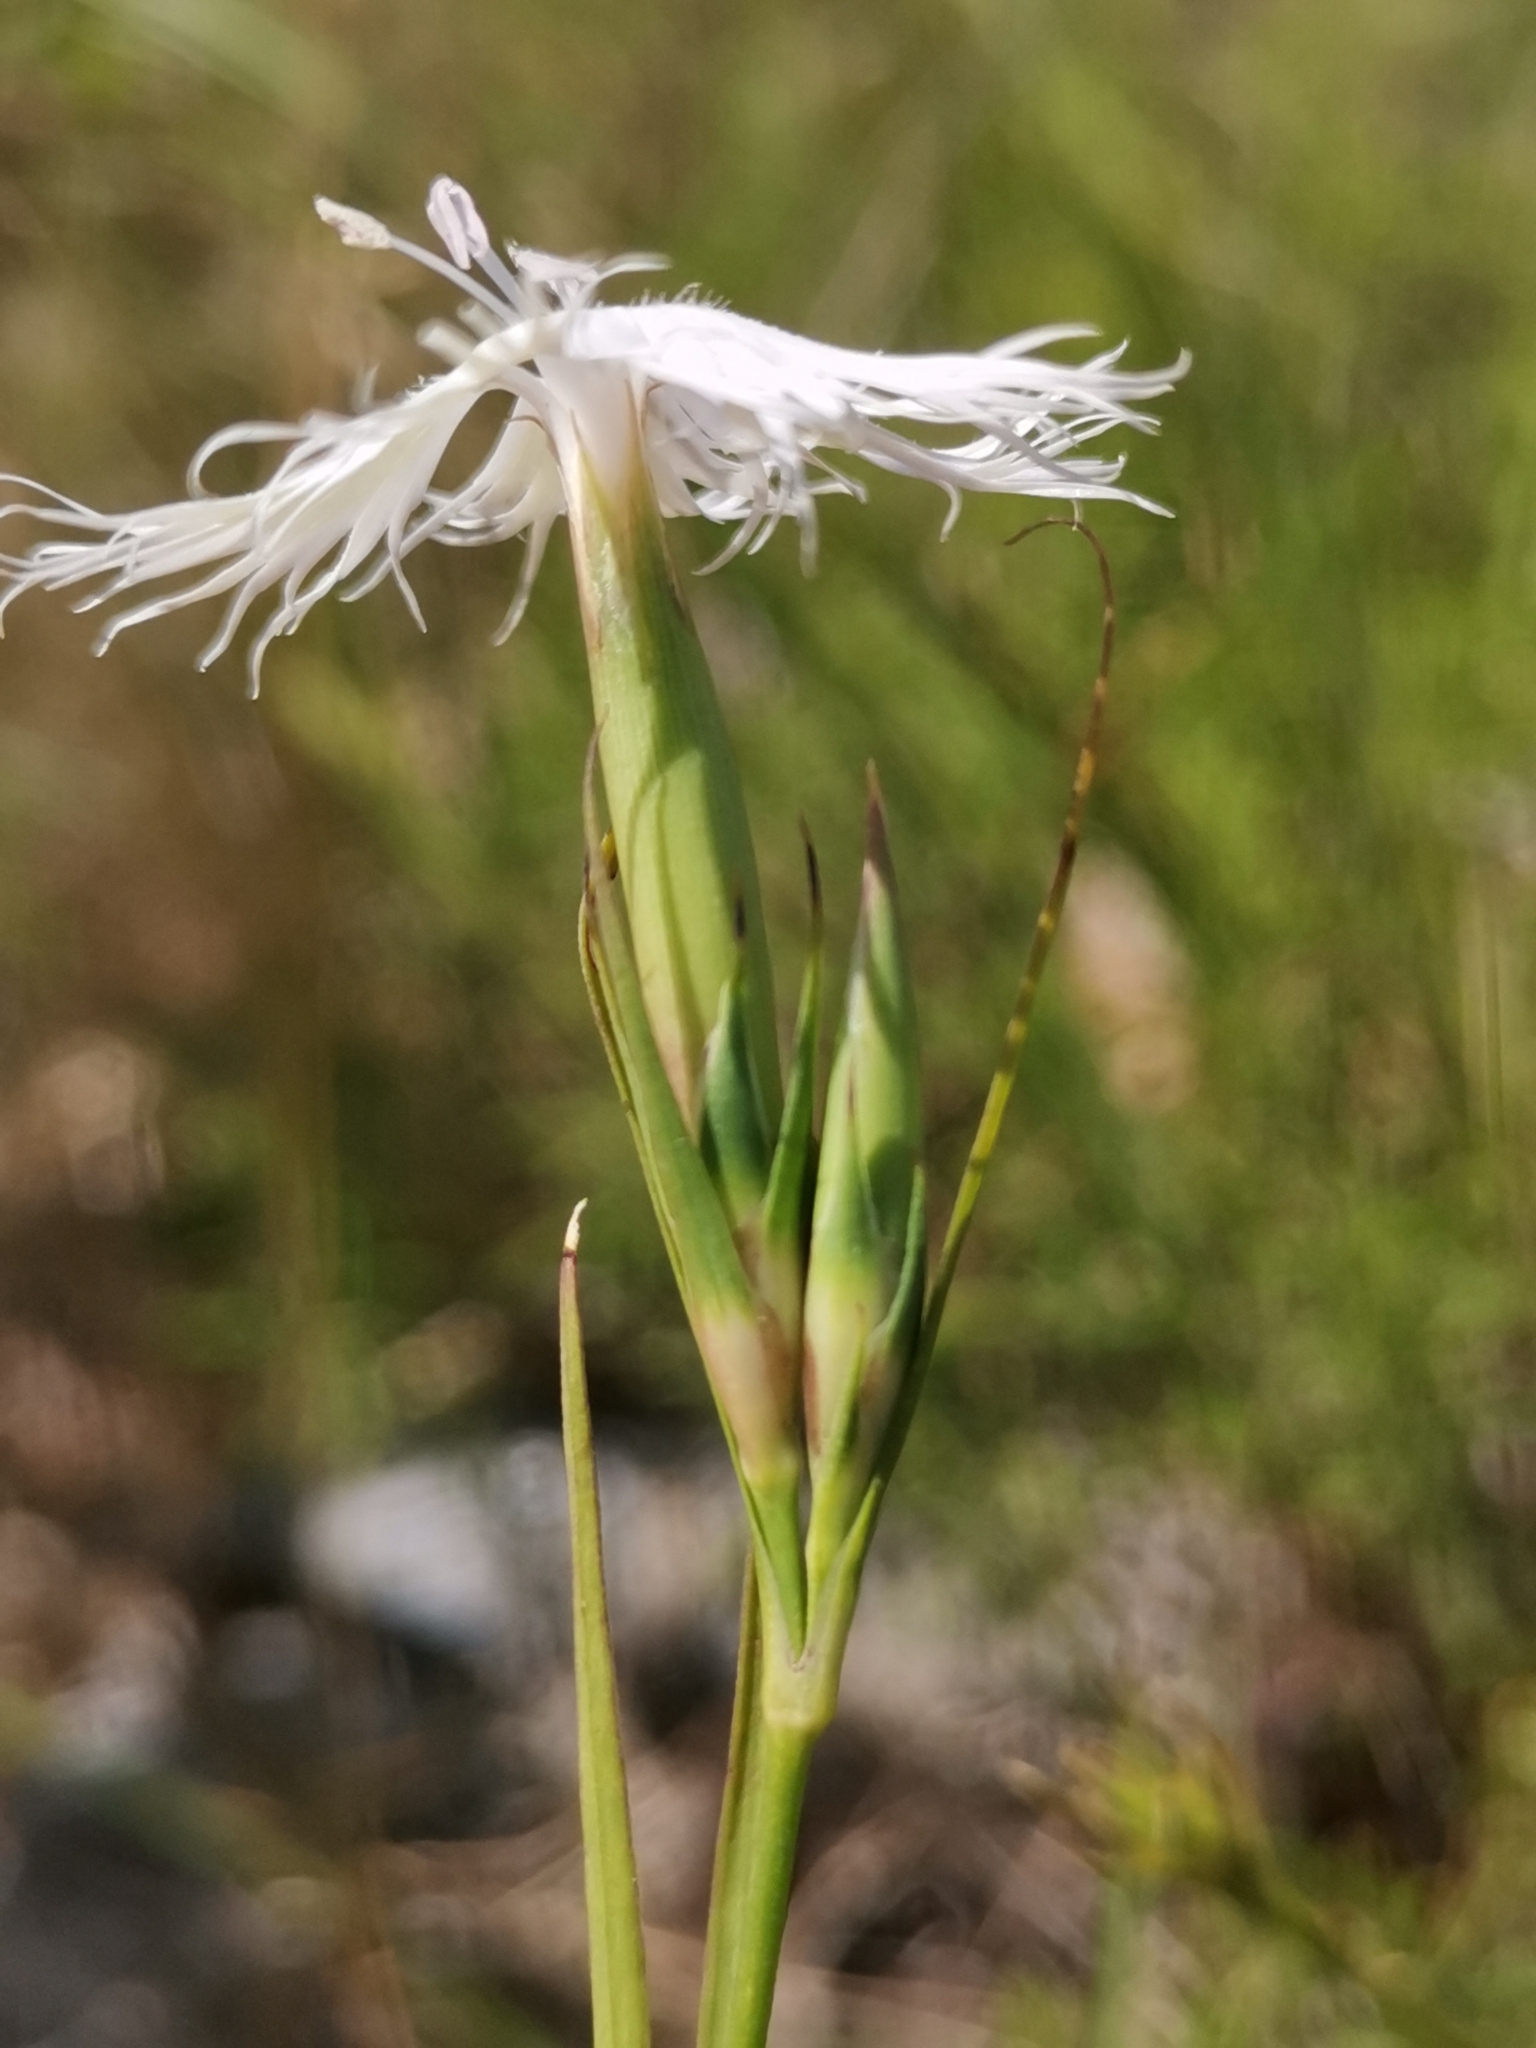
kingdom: Plantae
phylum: Tracheophyta
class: Magnoliopsida
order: Caryophyllales
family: Caryophyllaceae
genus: Dianthus
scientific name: Dianthus hyssopifolius
